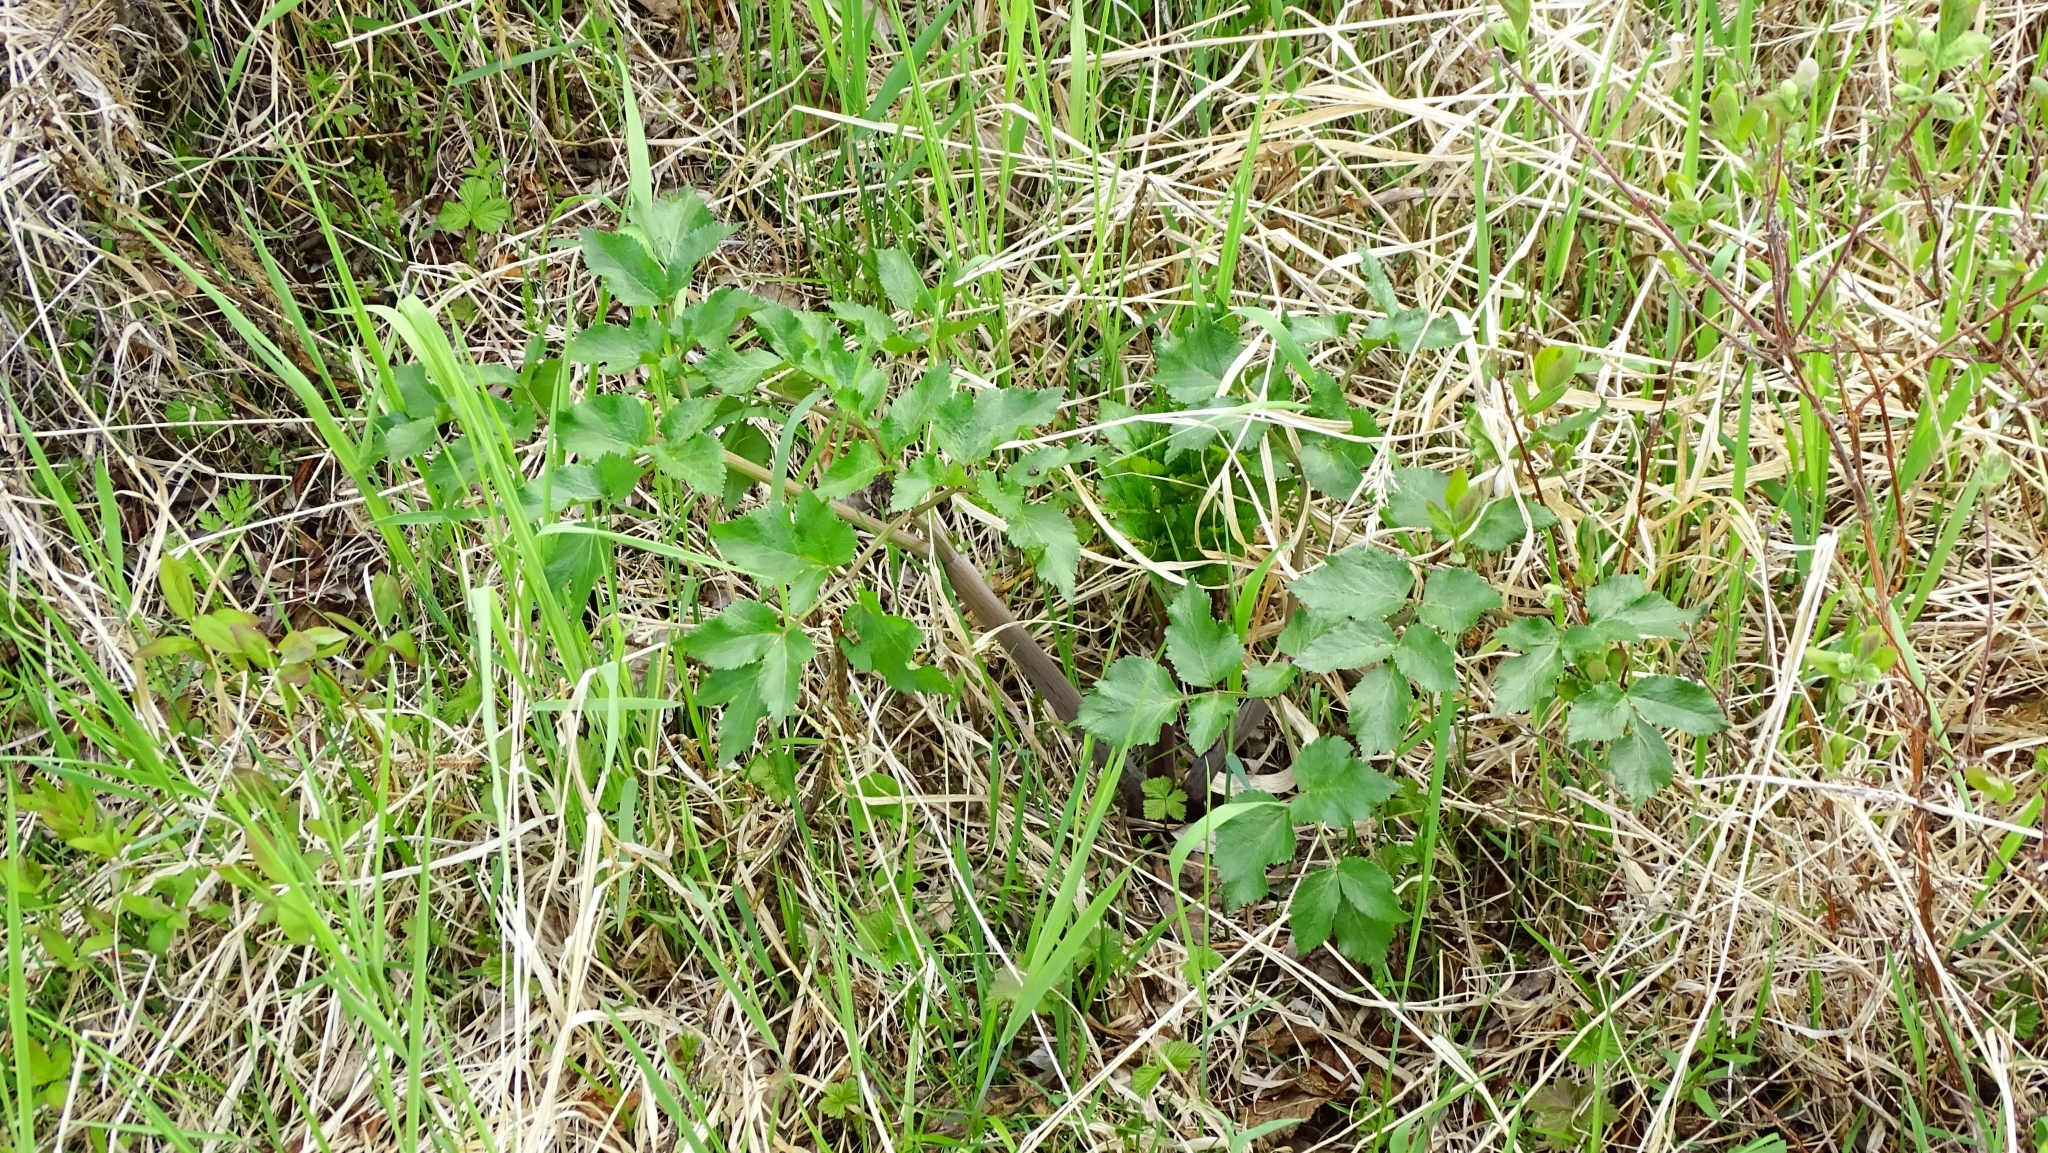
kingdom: Plantae
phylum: Tracheophyta
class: Magnoliopsida
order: Apiales
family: Apiaceae
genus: Angelica
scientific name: Angelica gmelinii
